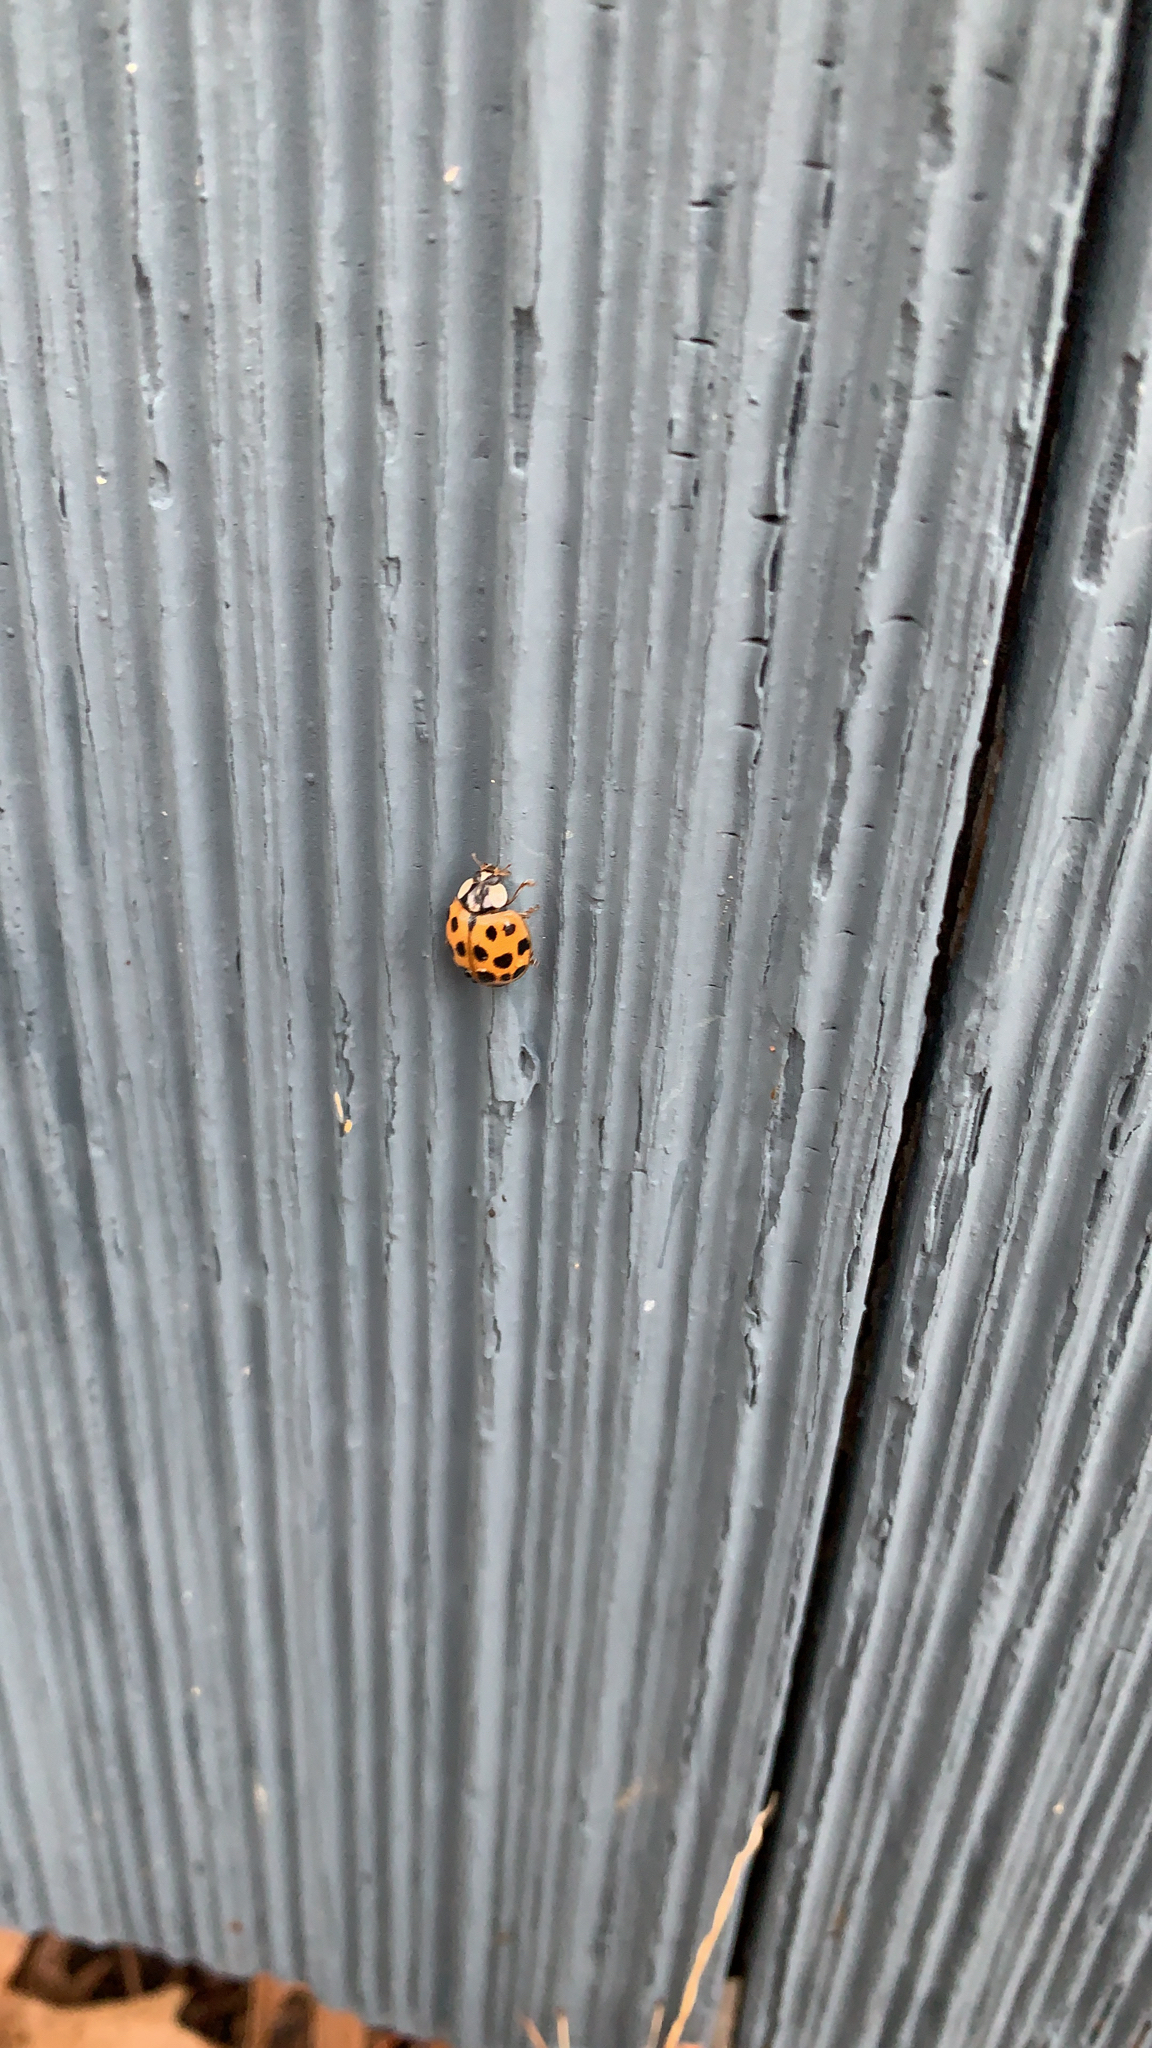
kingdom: Animalia
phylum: Arthropoda
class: Insecta
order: Coleoptera
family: Coccinellidae
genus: Harmonia
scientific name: Harmonia axyridis
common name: Harlequin ladybird
